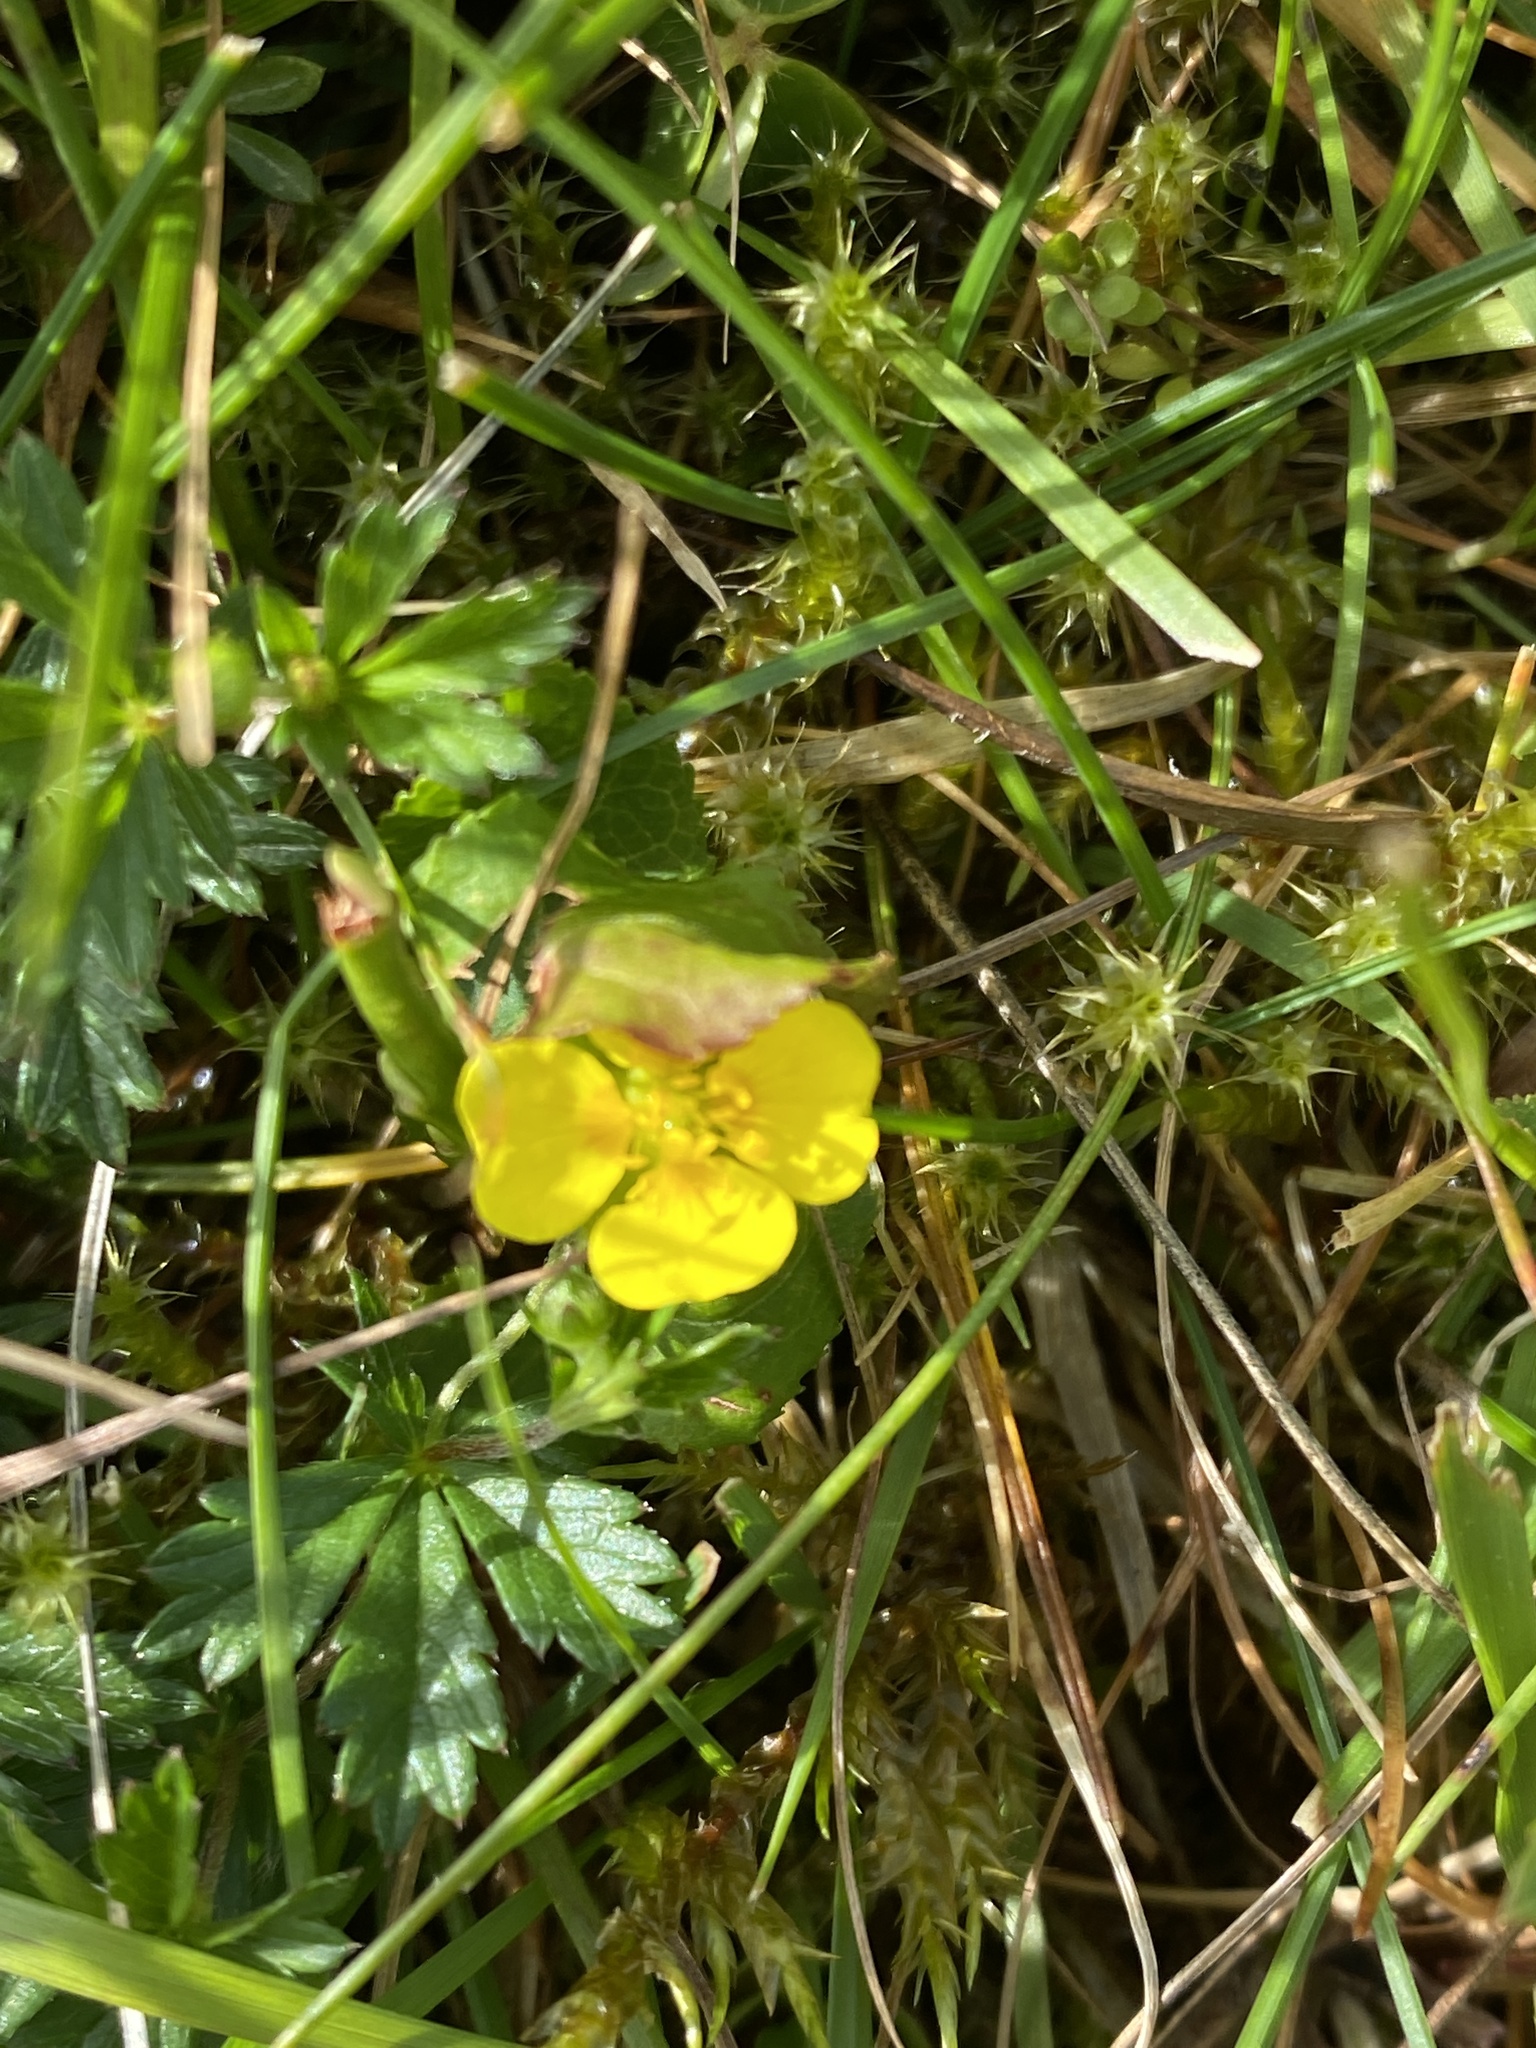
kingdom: Plantae
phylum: Tracheophyta
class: Magnoliopsida
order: Rosales
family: Rosaceae
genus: Potentilla
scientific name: Potentilla erecta
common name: Tormentil
